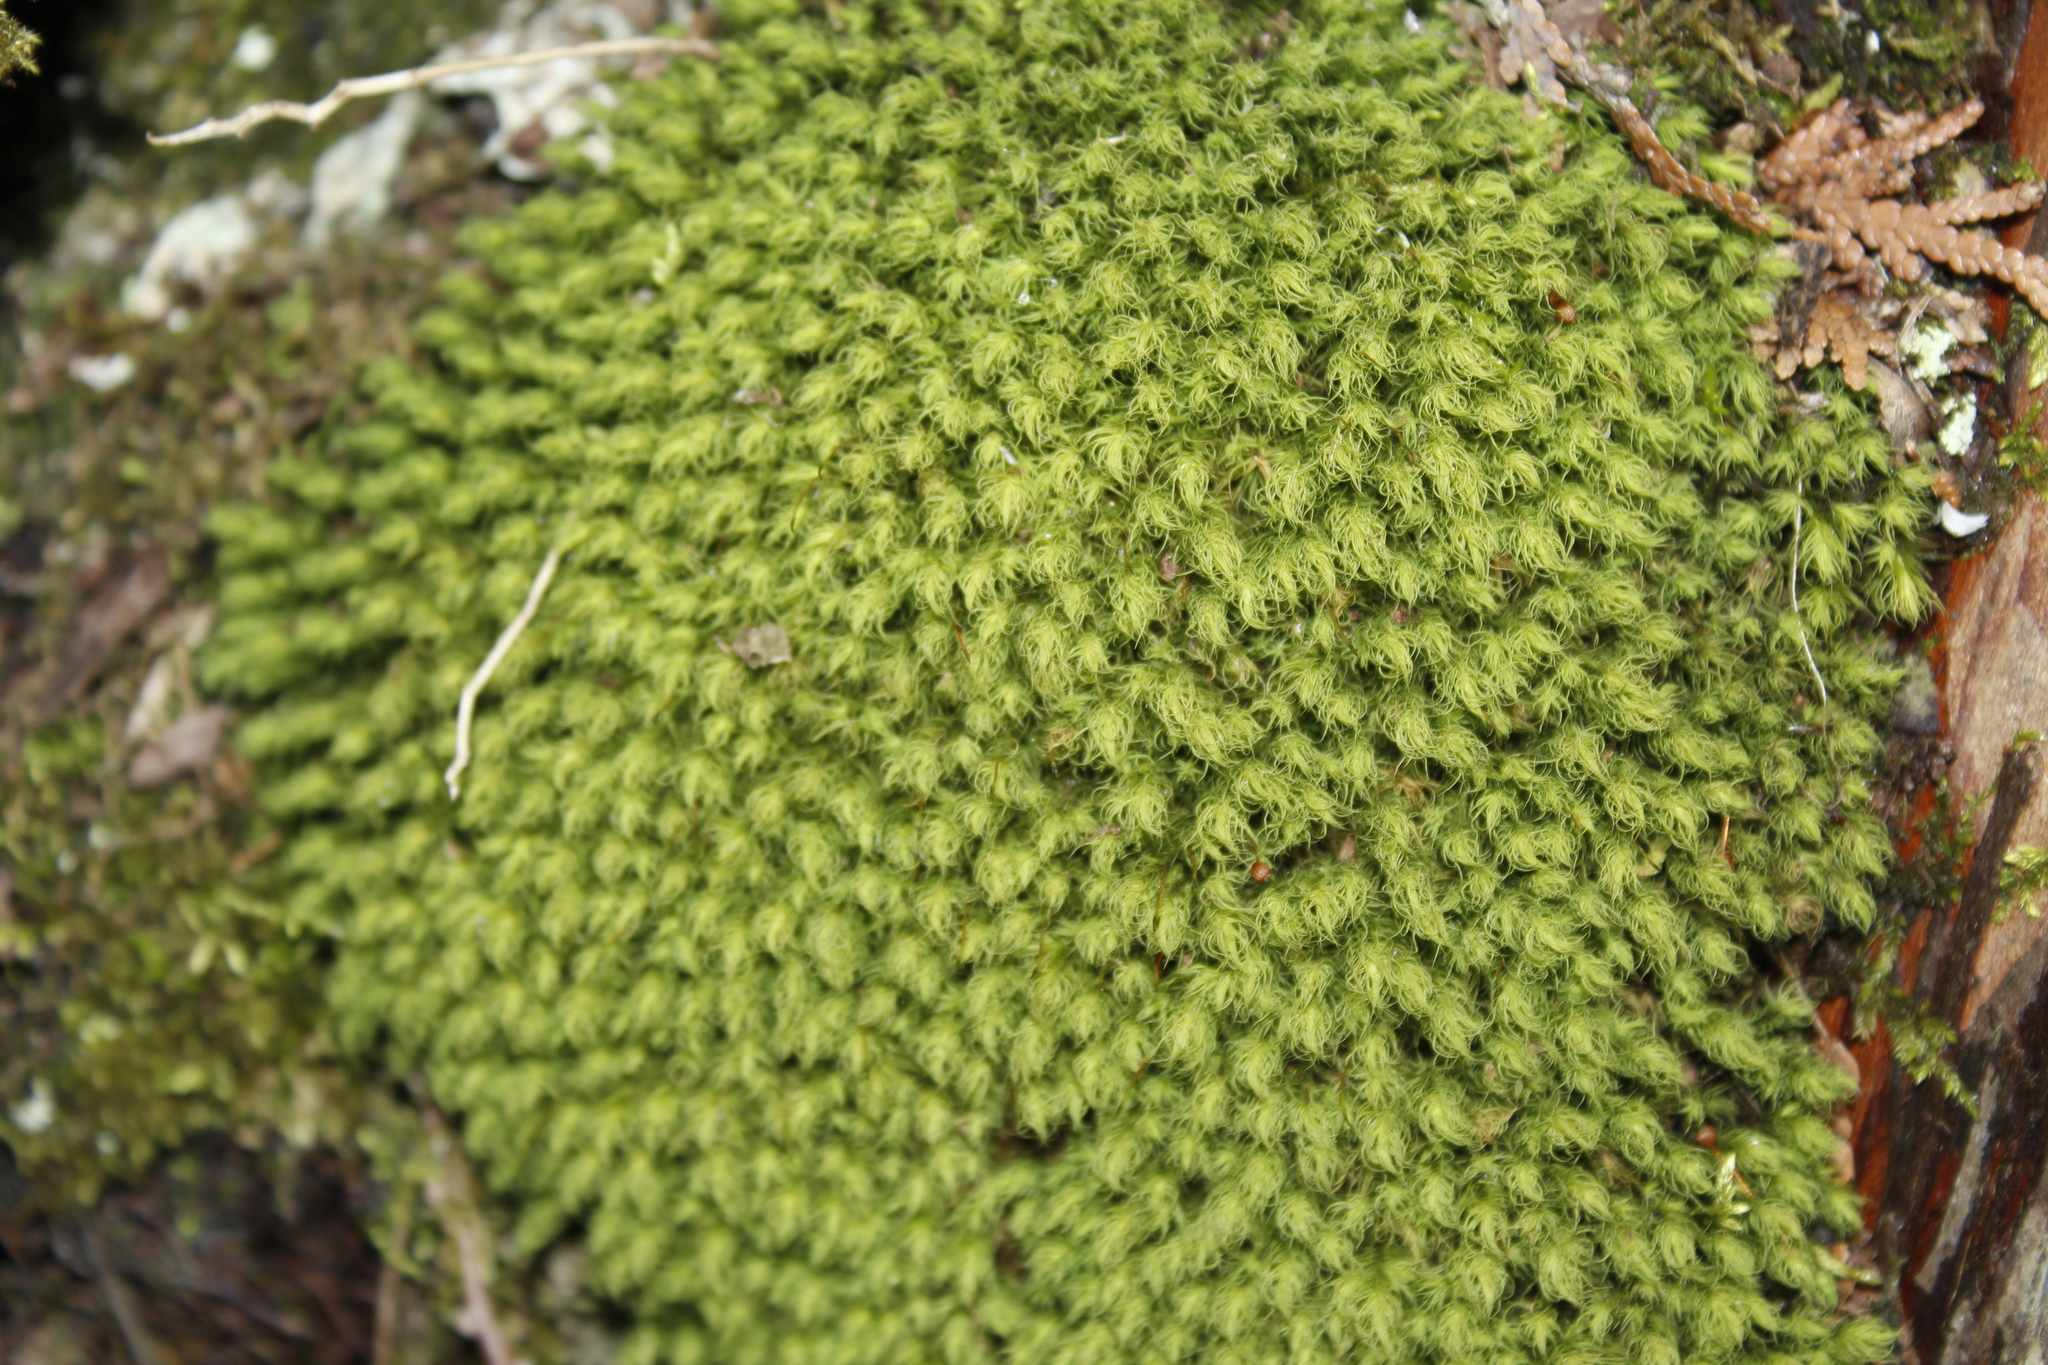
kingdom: Plantae
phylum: Bryophyta
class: Bryopsida
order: Bartramiales
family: Bartramiaceae
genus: Bartramia
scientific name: Bartramia ithyphylla
